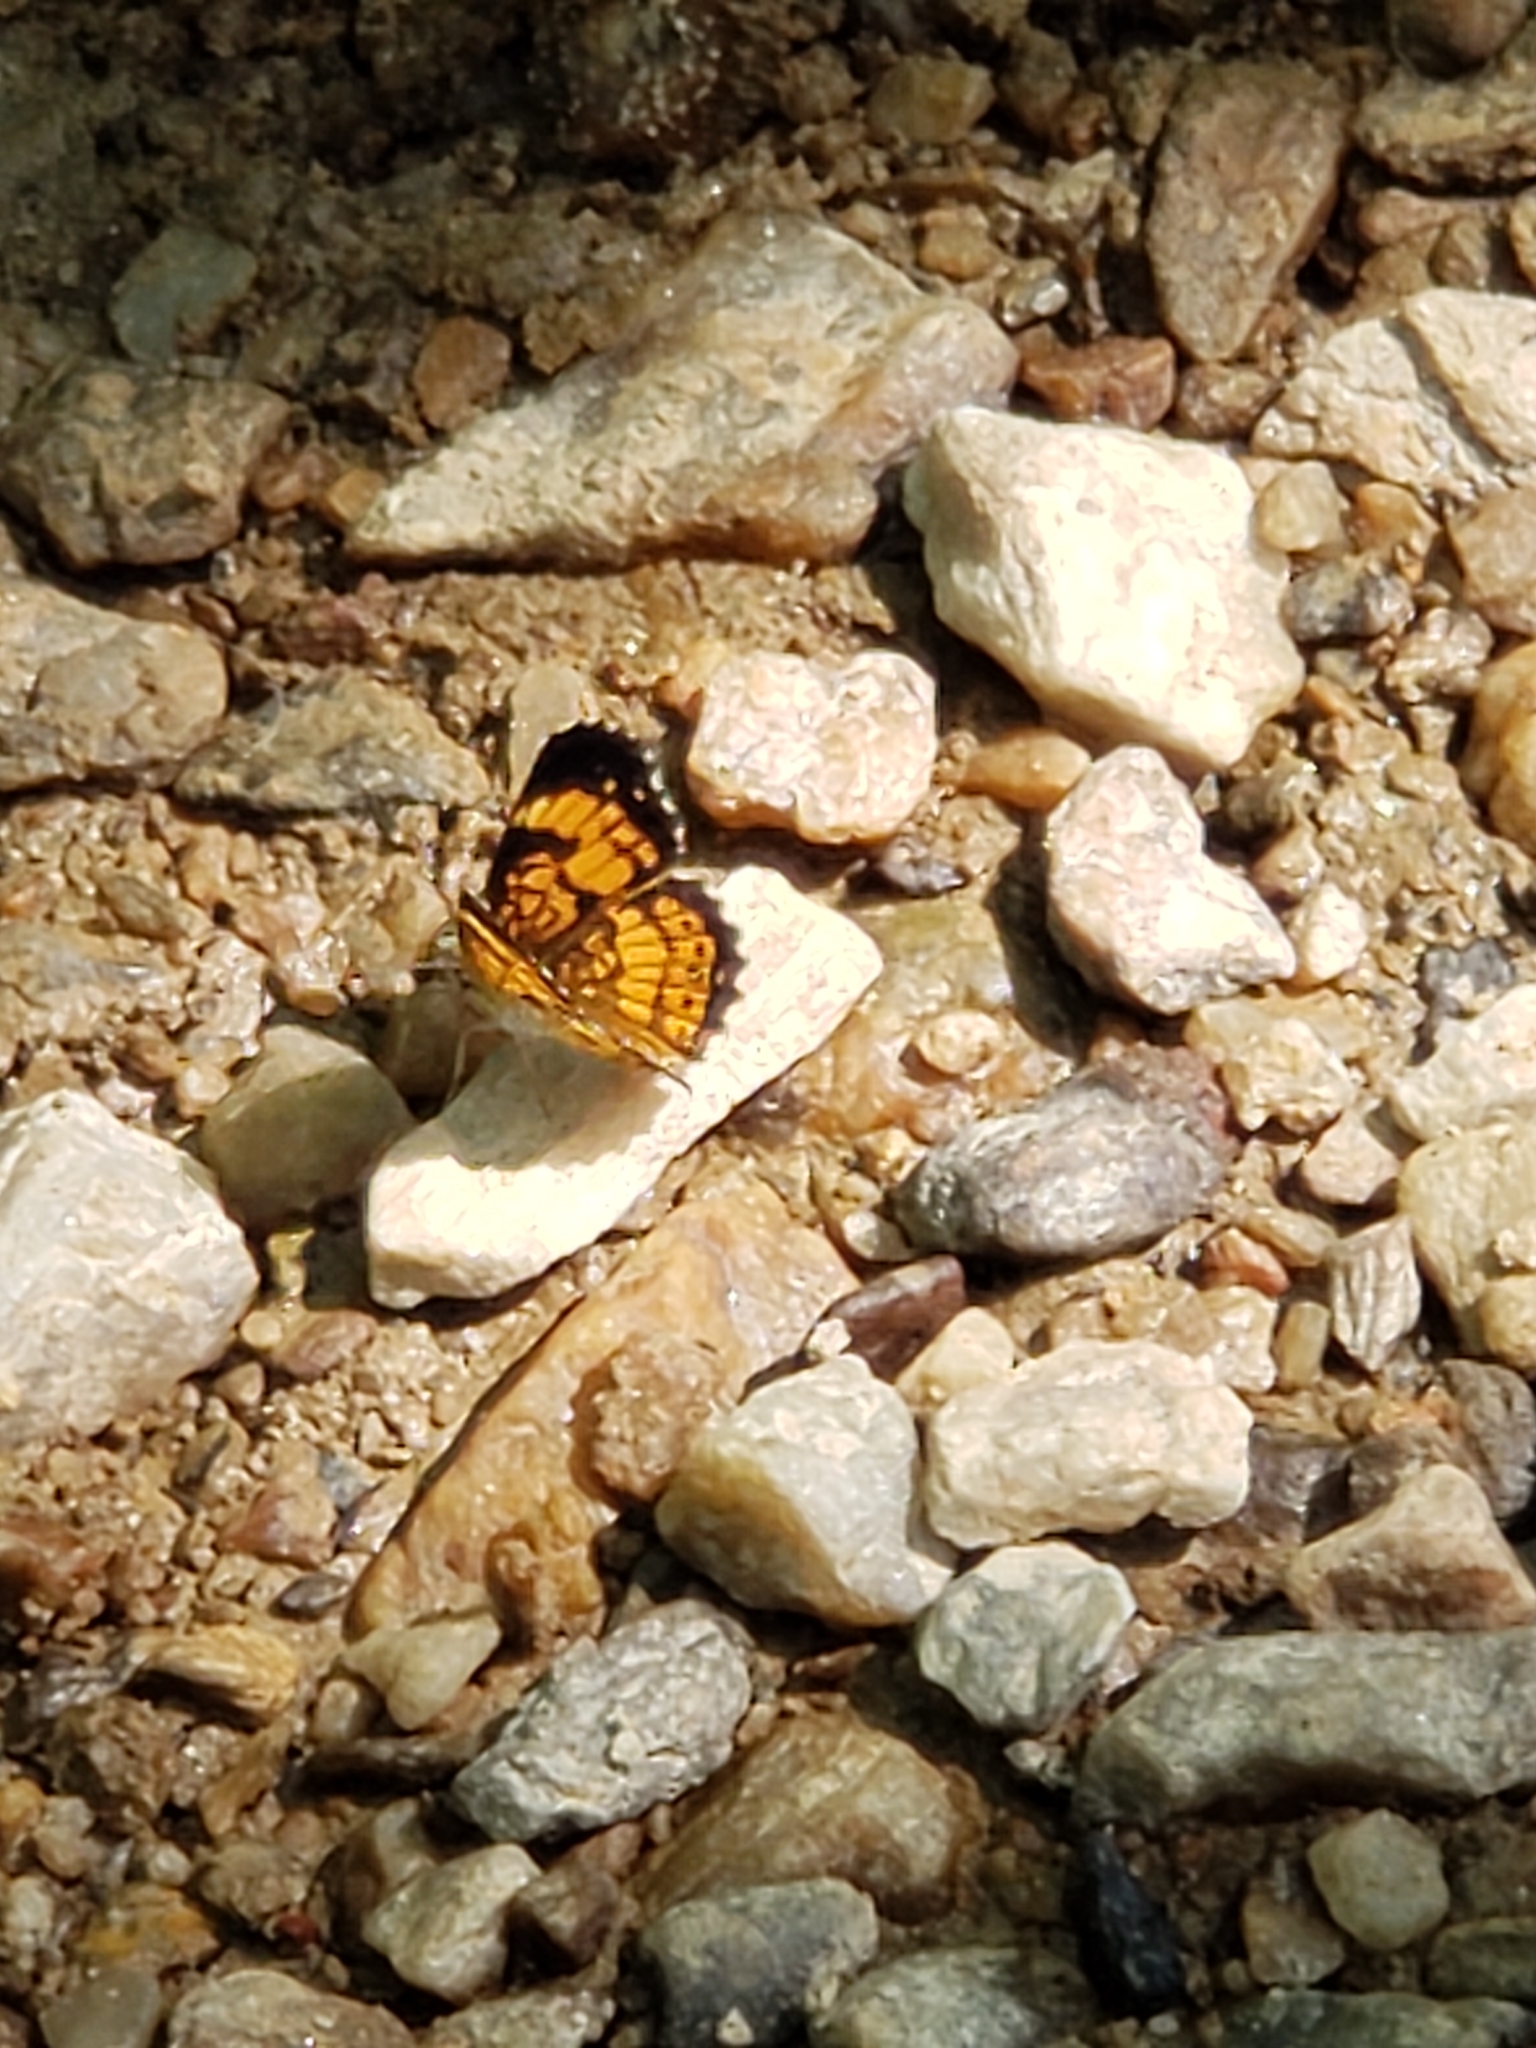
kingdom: Animalia
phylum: Arthropoda
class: Insecta
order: Lepidoptera
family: Nymphalidae
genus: Chlosyne
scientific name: Chlosyne nycteis
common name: Silvery checkerspot
